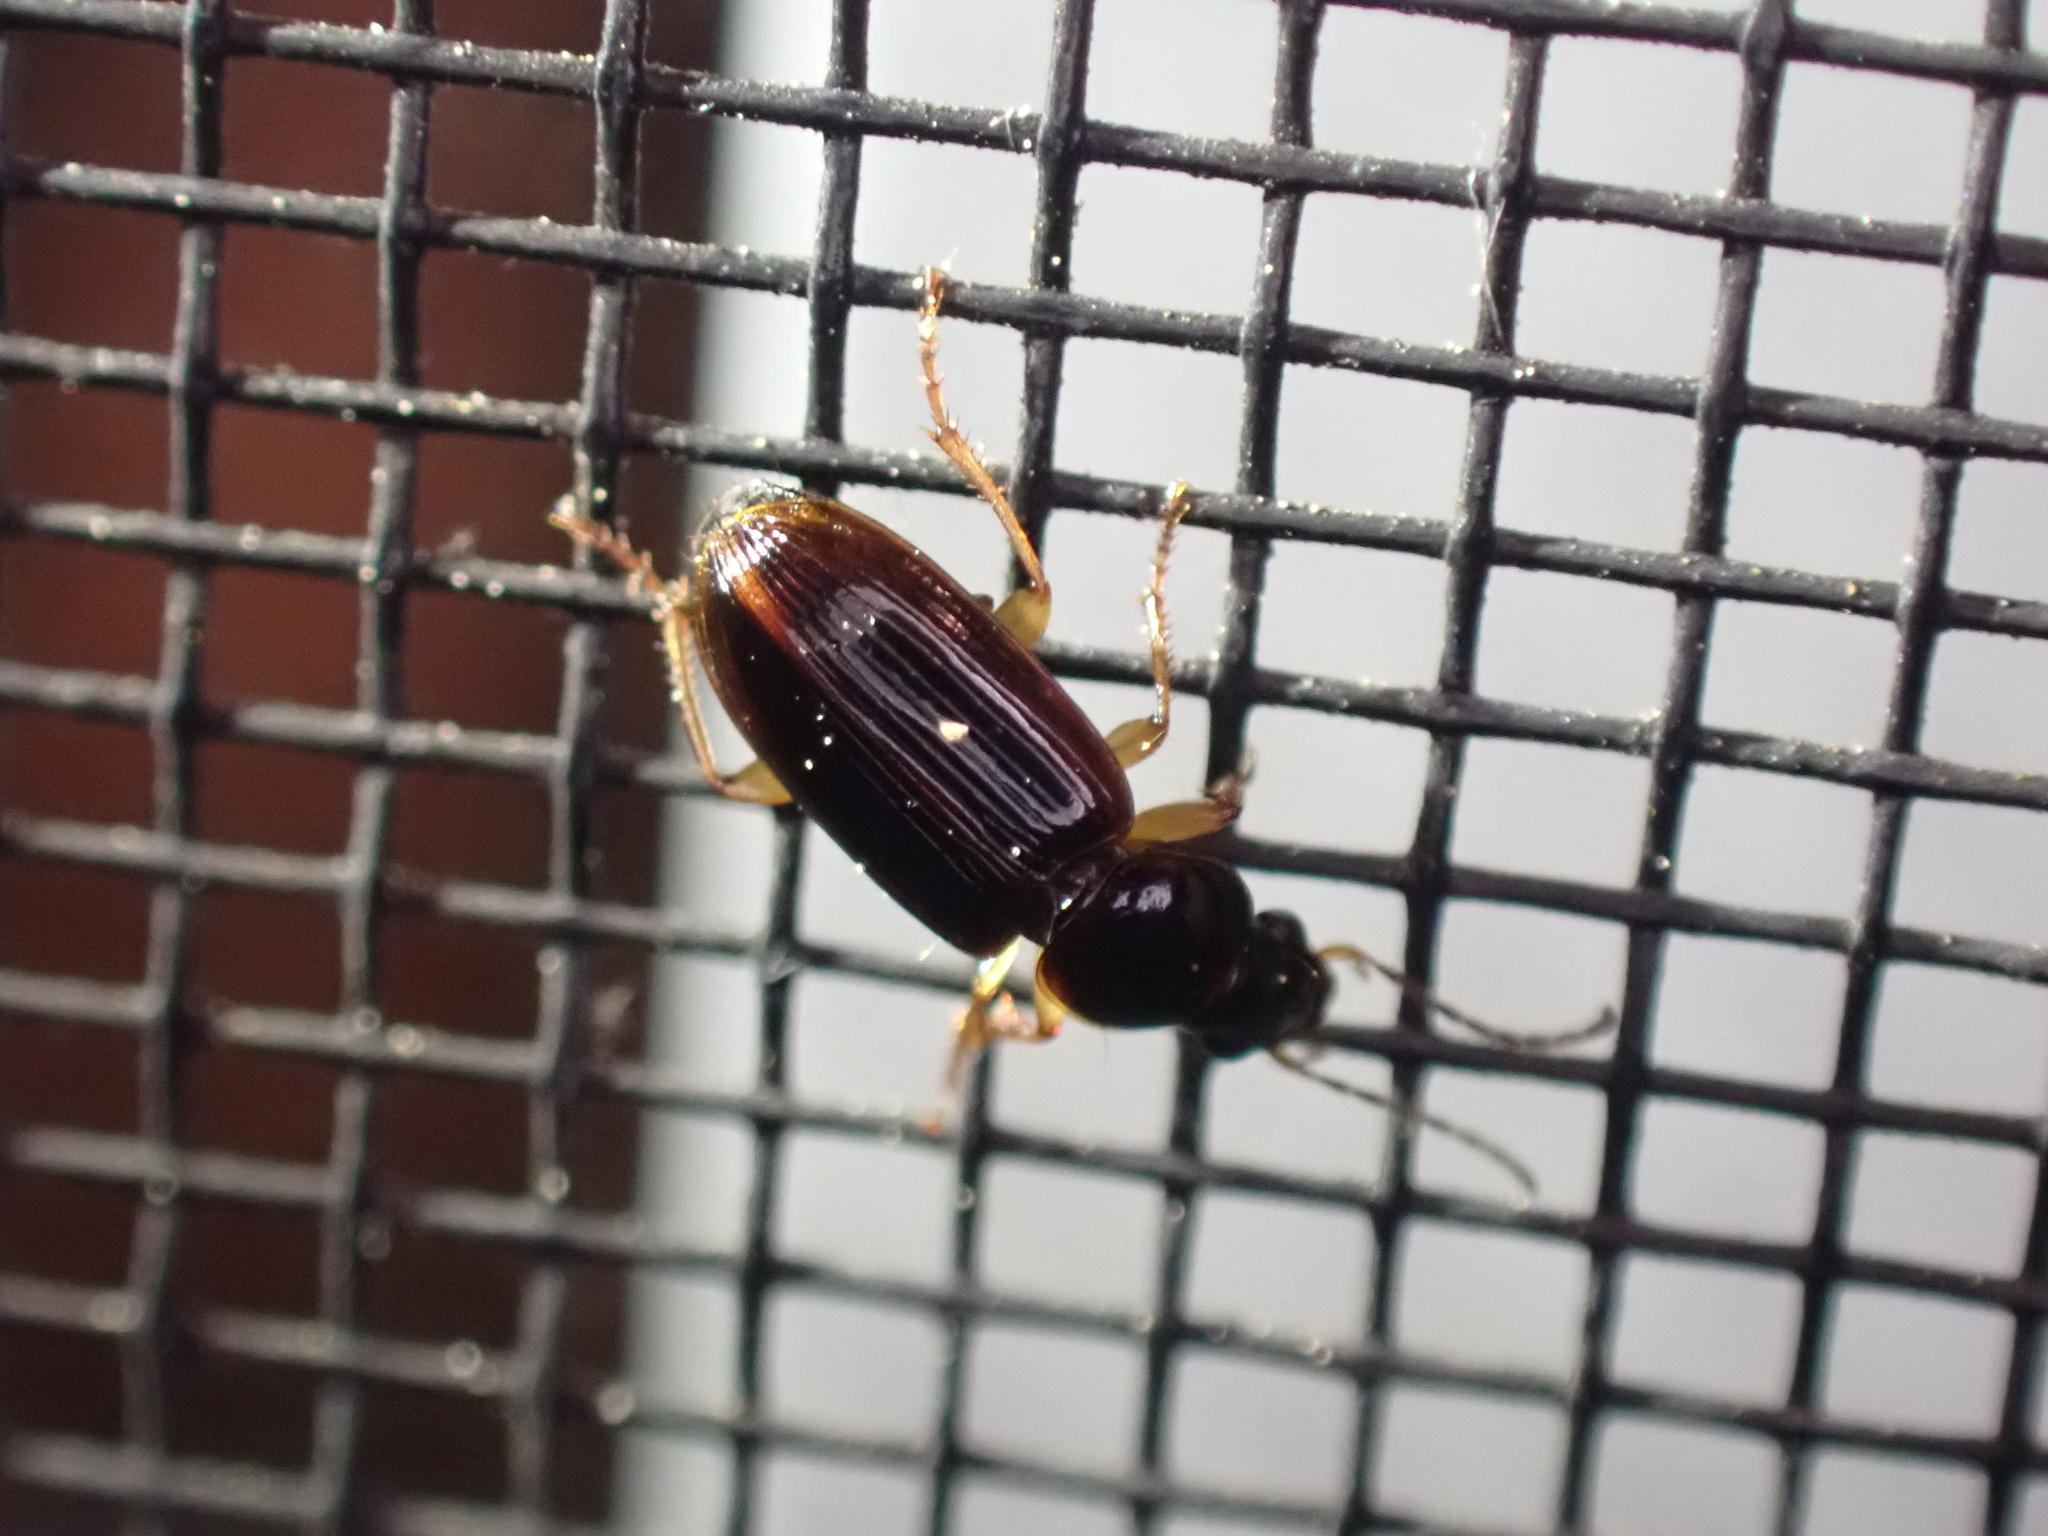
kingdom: Animalia
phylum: Arthropoda
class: Insecta
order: Coleoptera
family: Carabidae
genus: Stenolophus
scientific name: Stenolophus ochropezus
